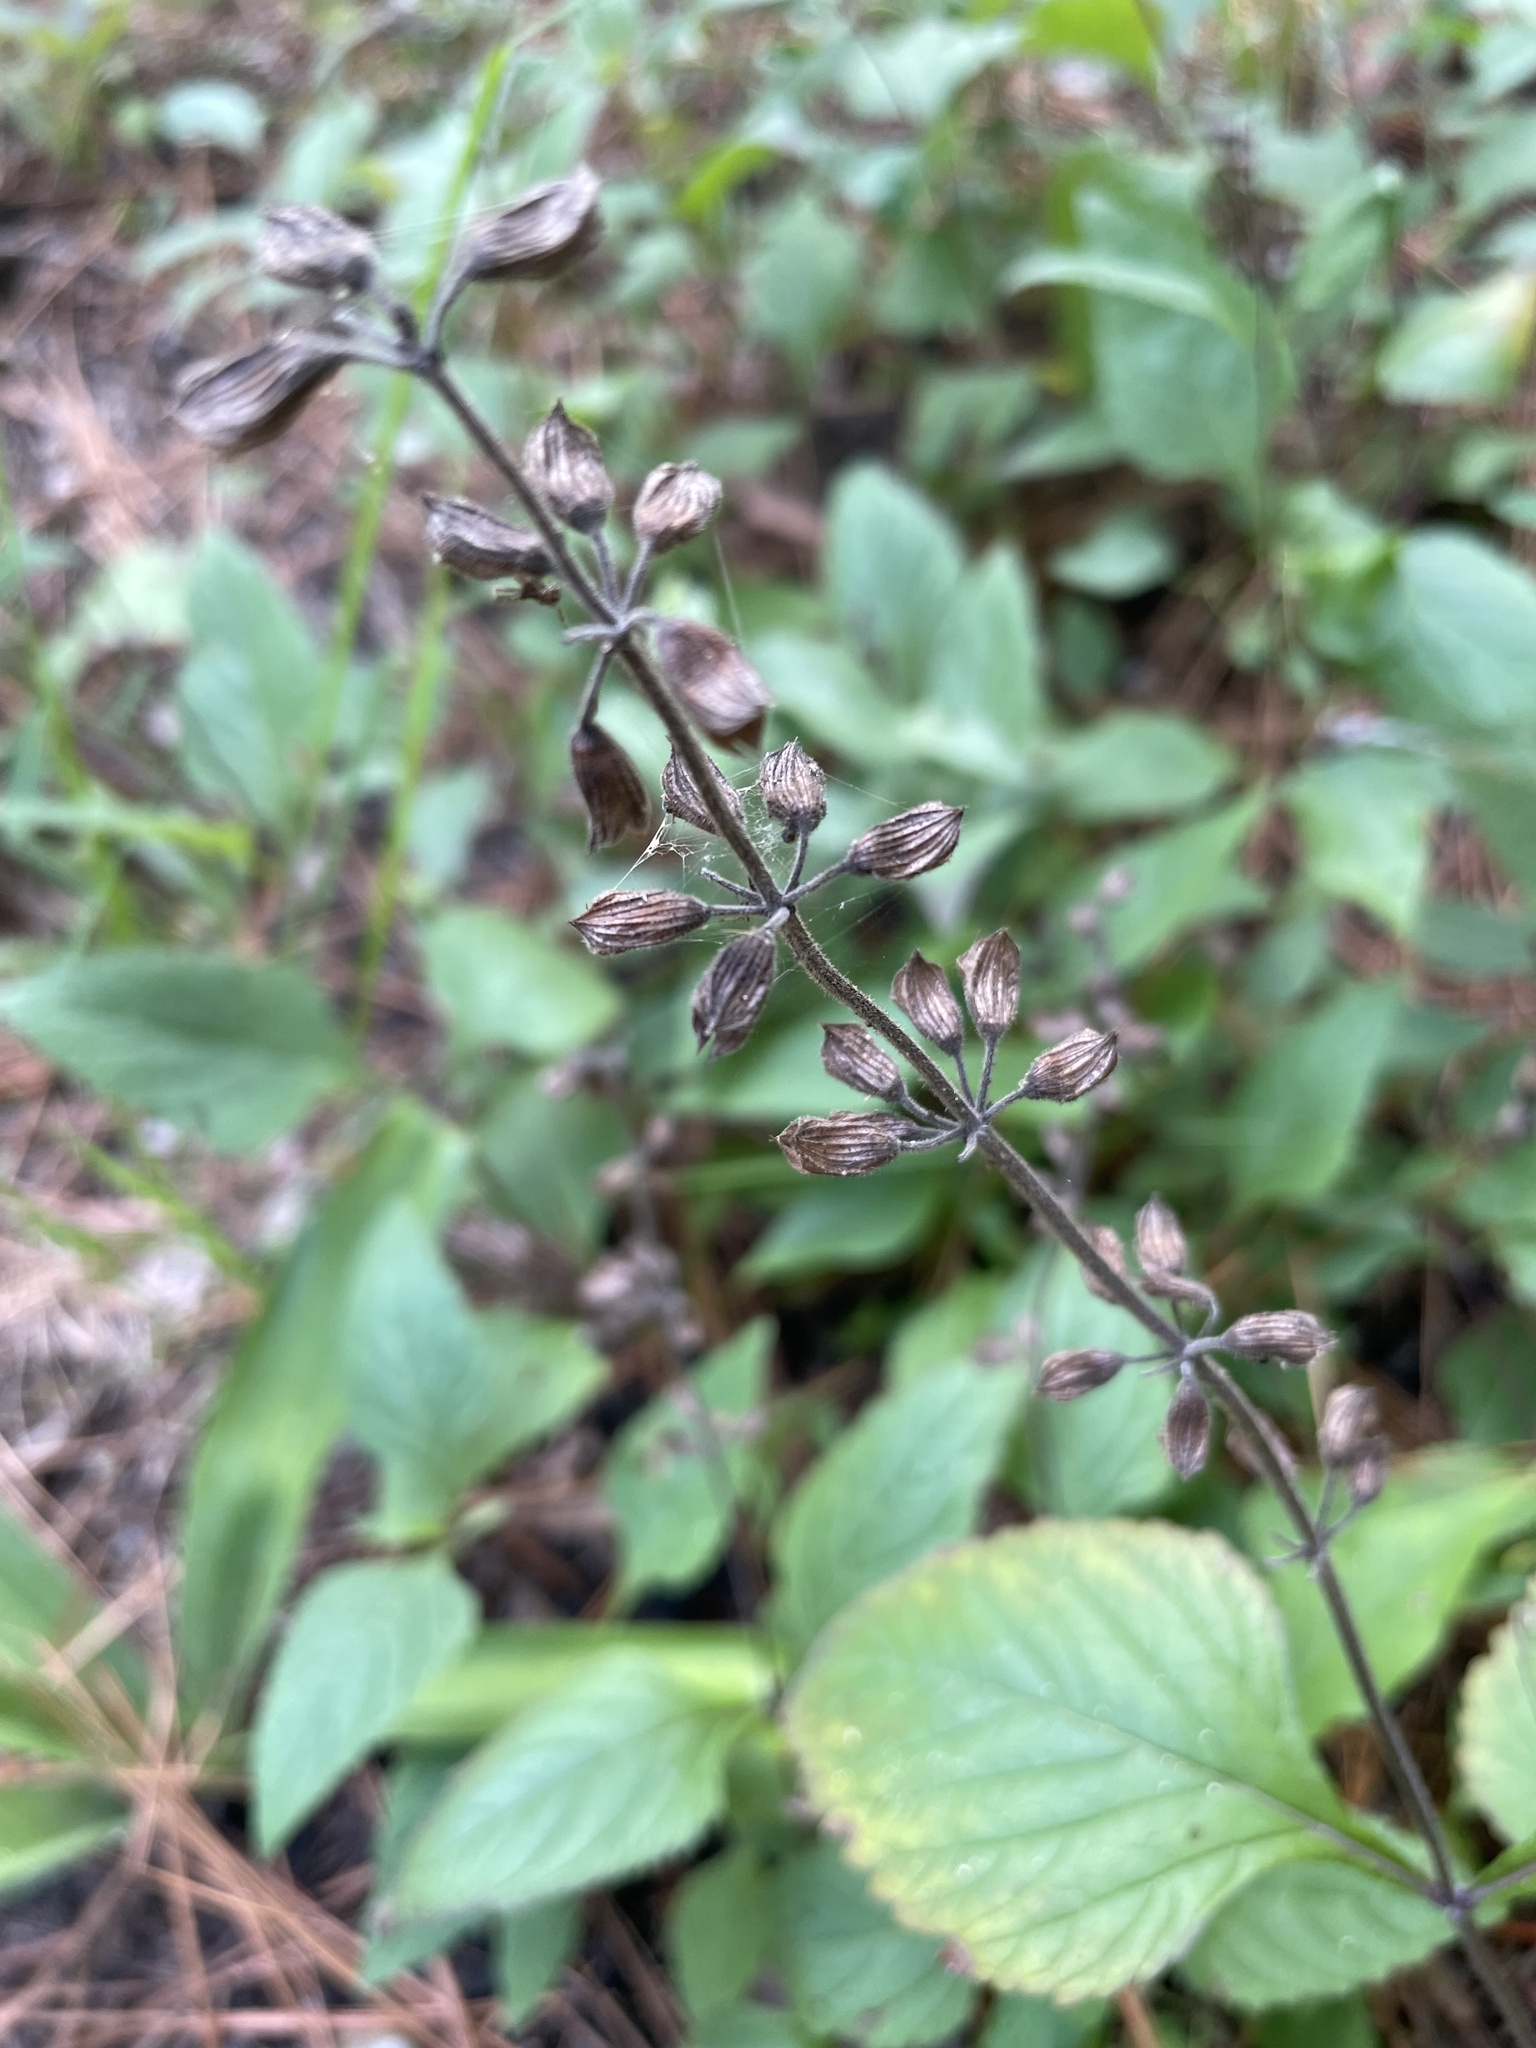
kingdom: Plantae
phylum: Tracheophyta
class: Magnoliopsida
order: Lamiales
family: Lamiaceae
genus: Salvia
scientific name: Salvia urticifolia
